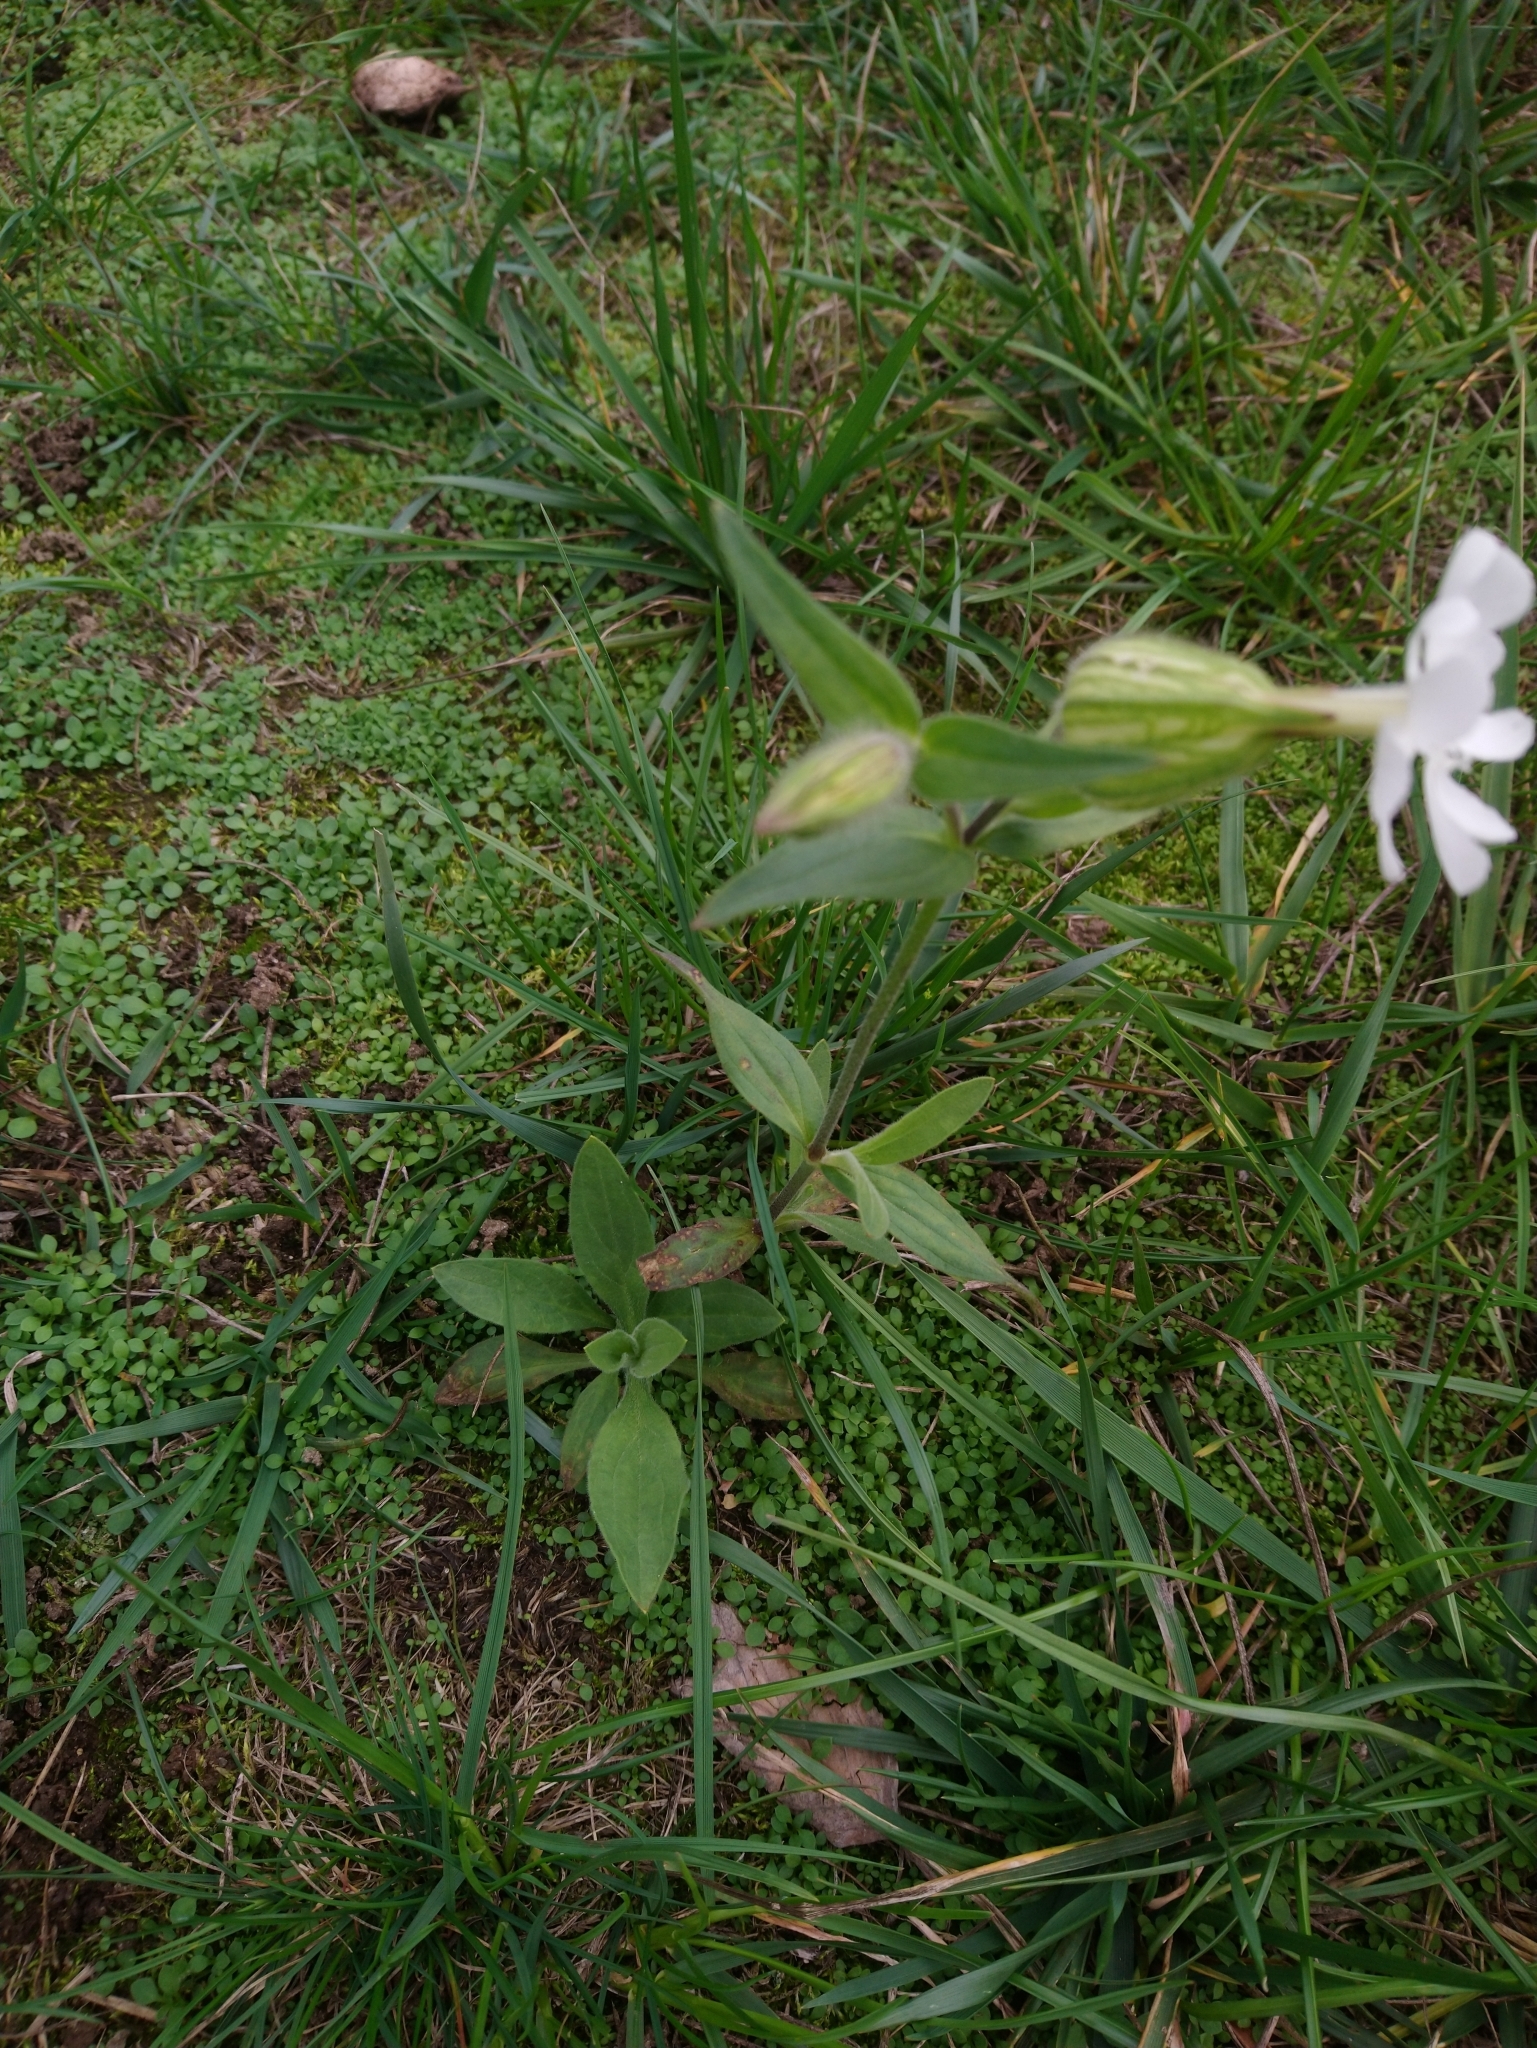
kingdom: Plantae
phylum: Tracheophyta
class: Magnoliopsida
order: Caryophyllales
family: Caryophyllaceae
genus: Silene
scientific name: Silene latifolia
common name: White campion
